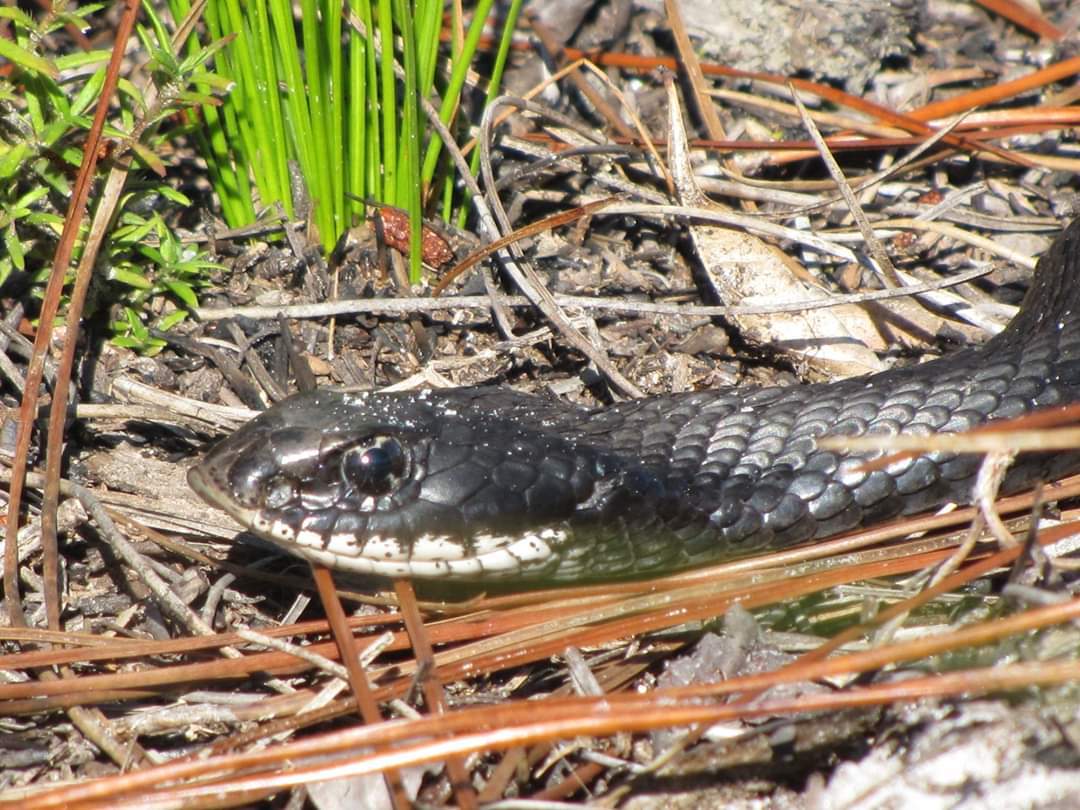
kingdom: Animalia
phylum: Chordata
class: Squamata
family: Colubridae
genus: Heterodon
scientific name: Heterodon platirhinos
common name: Eastern hognose snake
